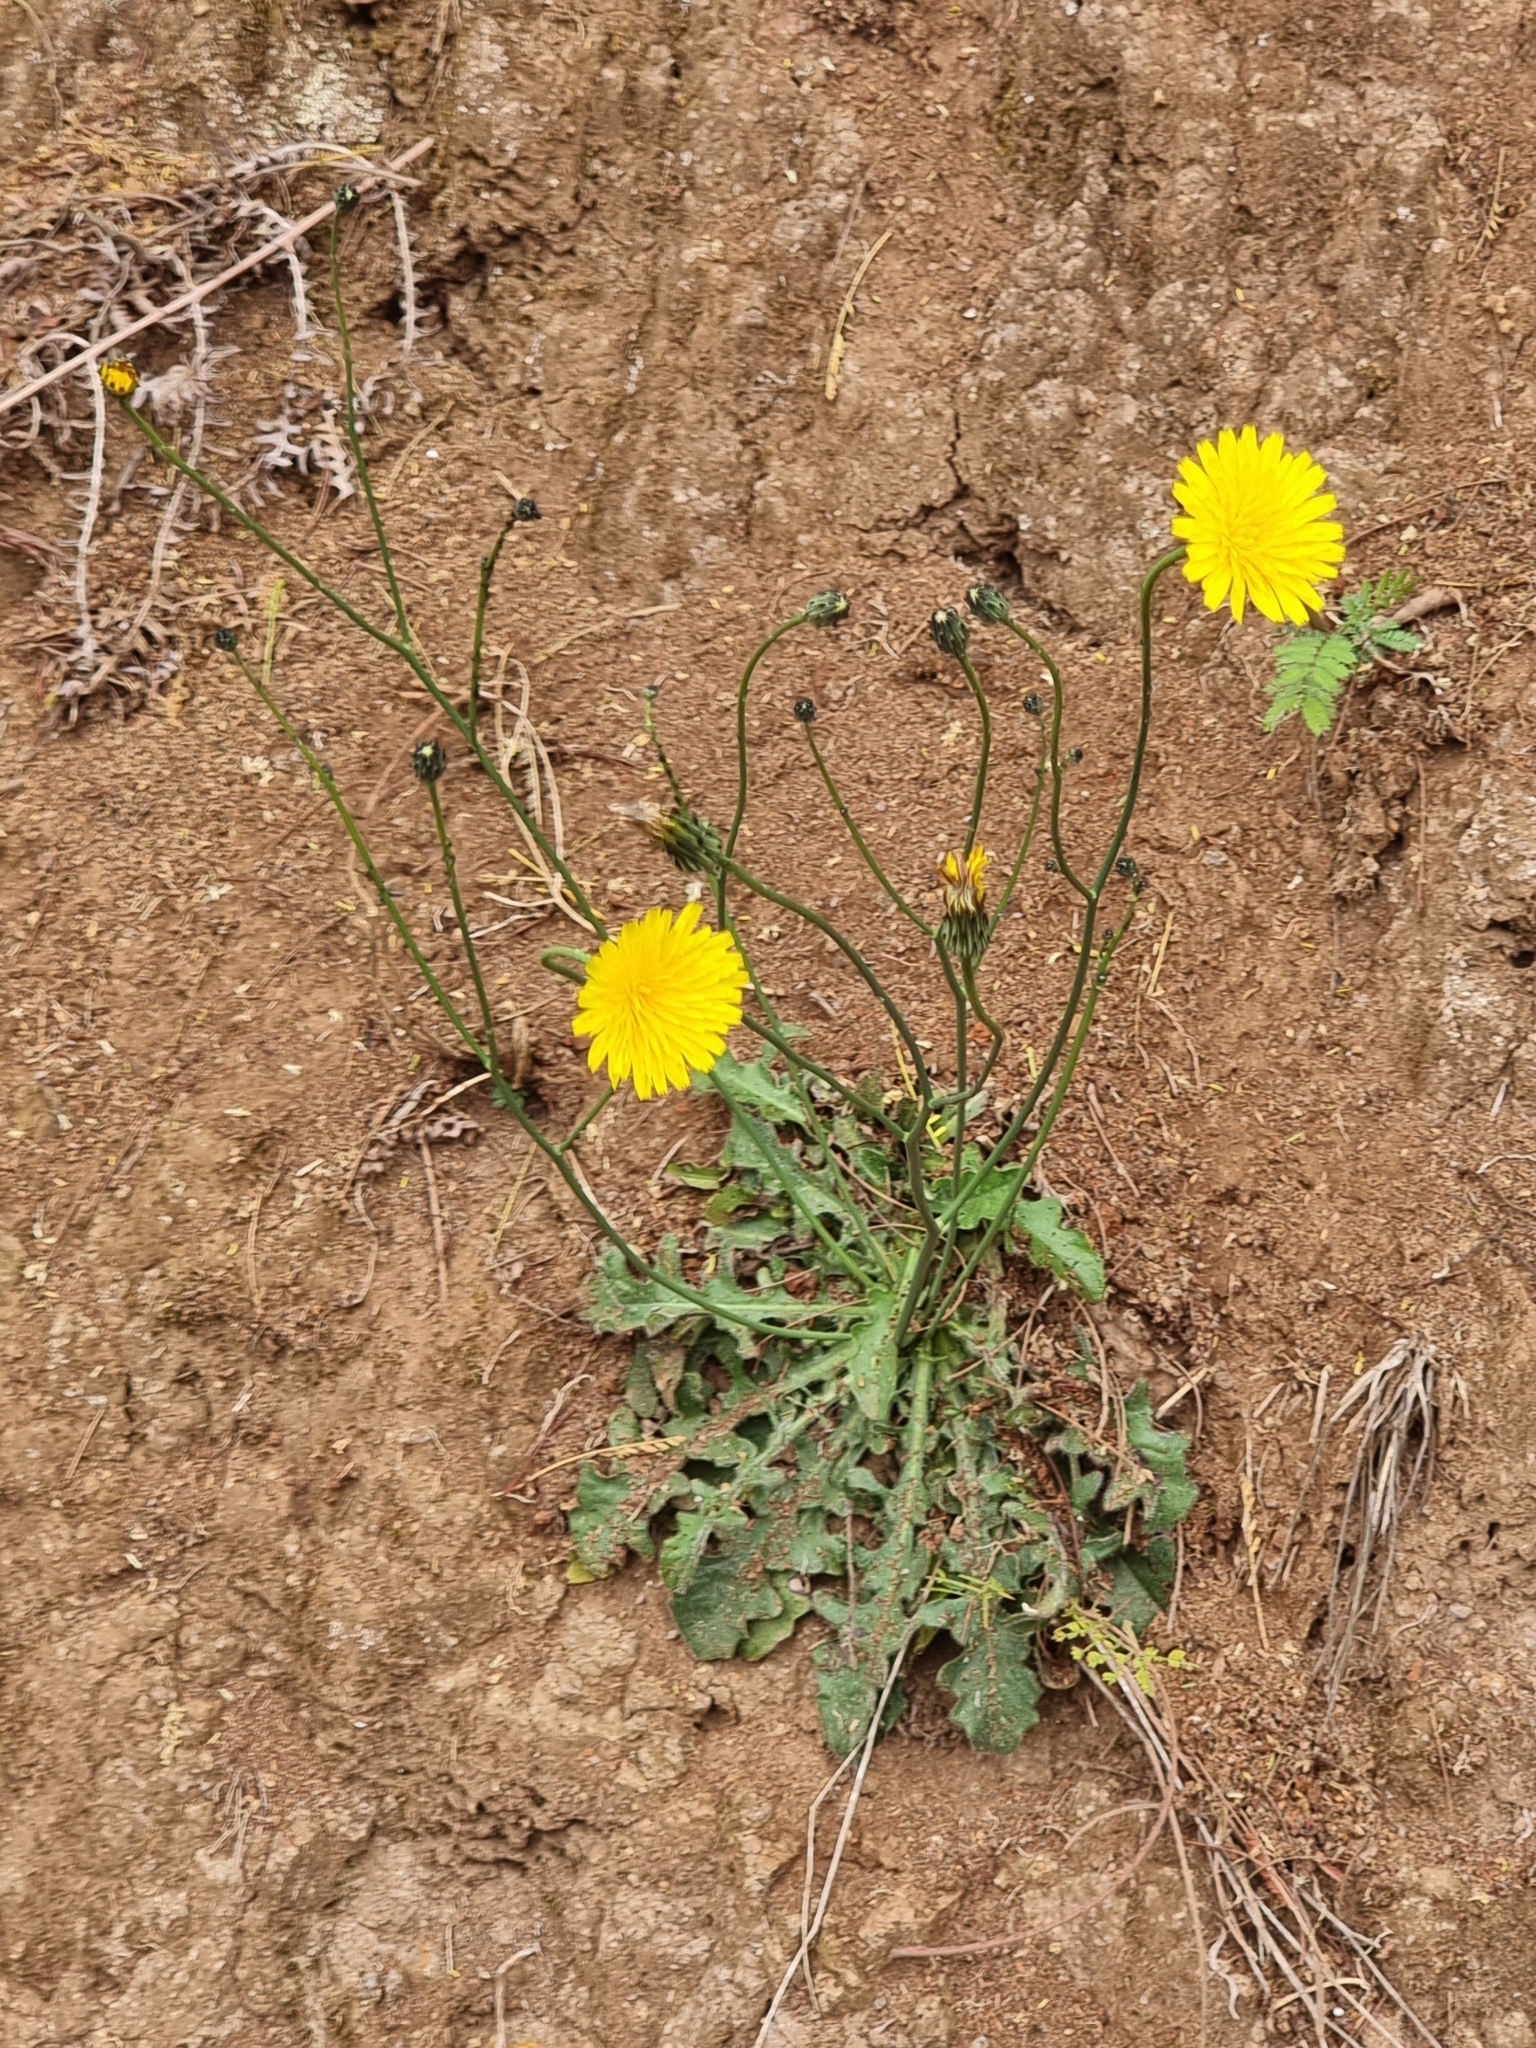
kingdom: Plantae
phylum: Tracheophyta
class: Magnoliopsida
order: Asterales
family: Asteraceae
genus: Hypochaeris
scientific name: Hypochaeris radicata
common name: Flatweed
